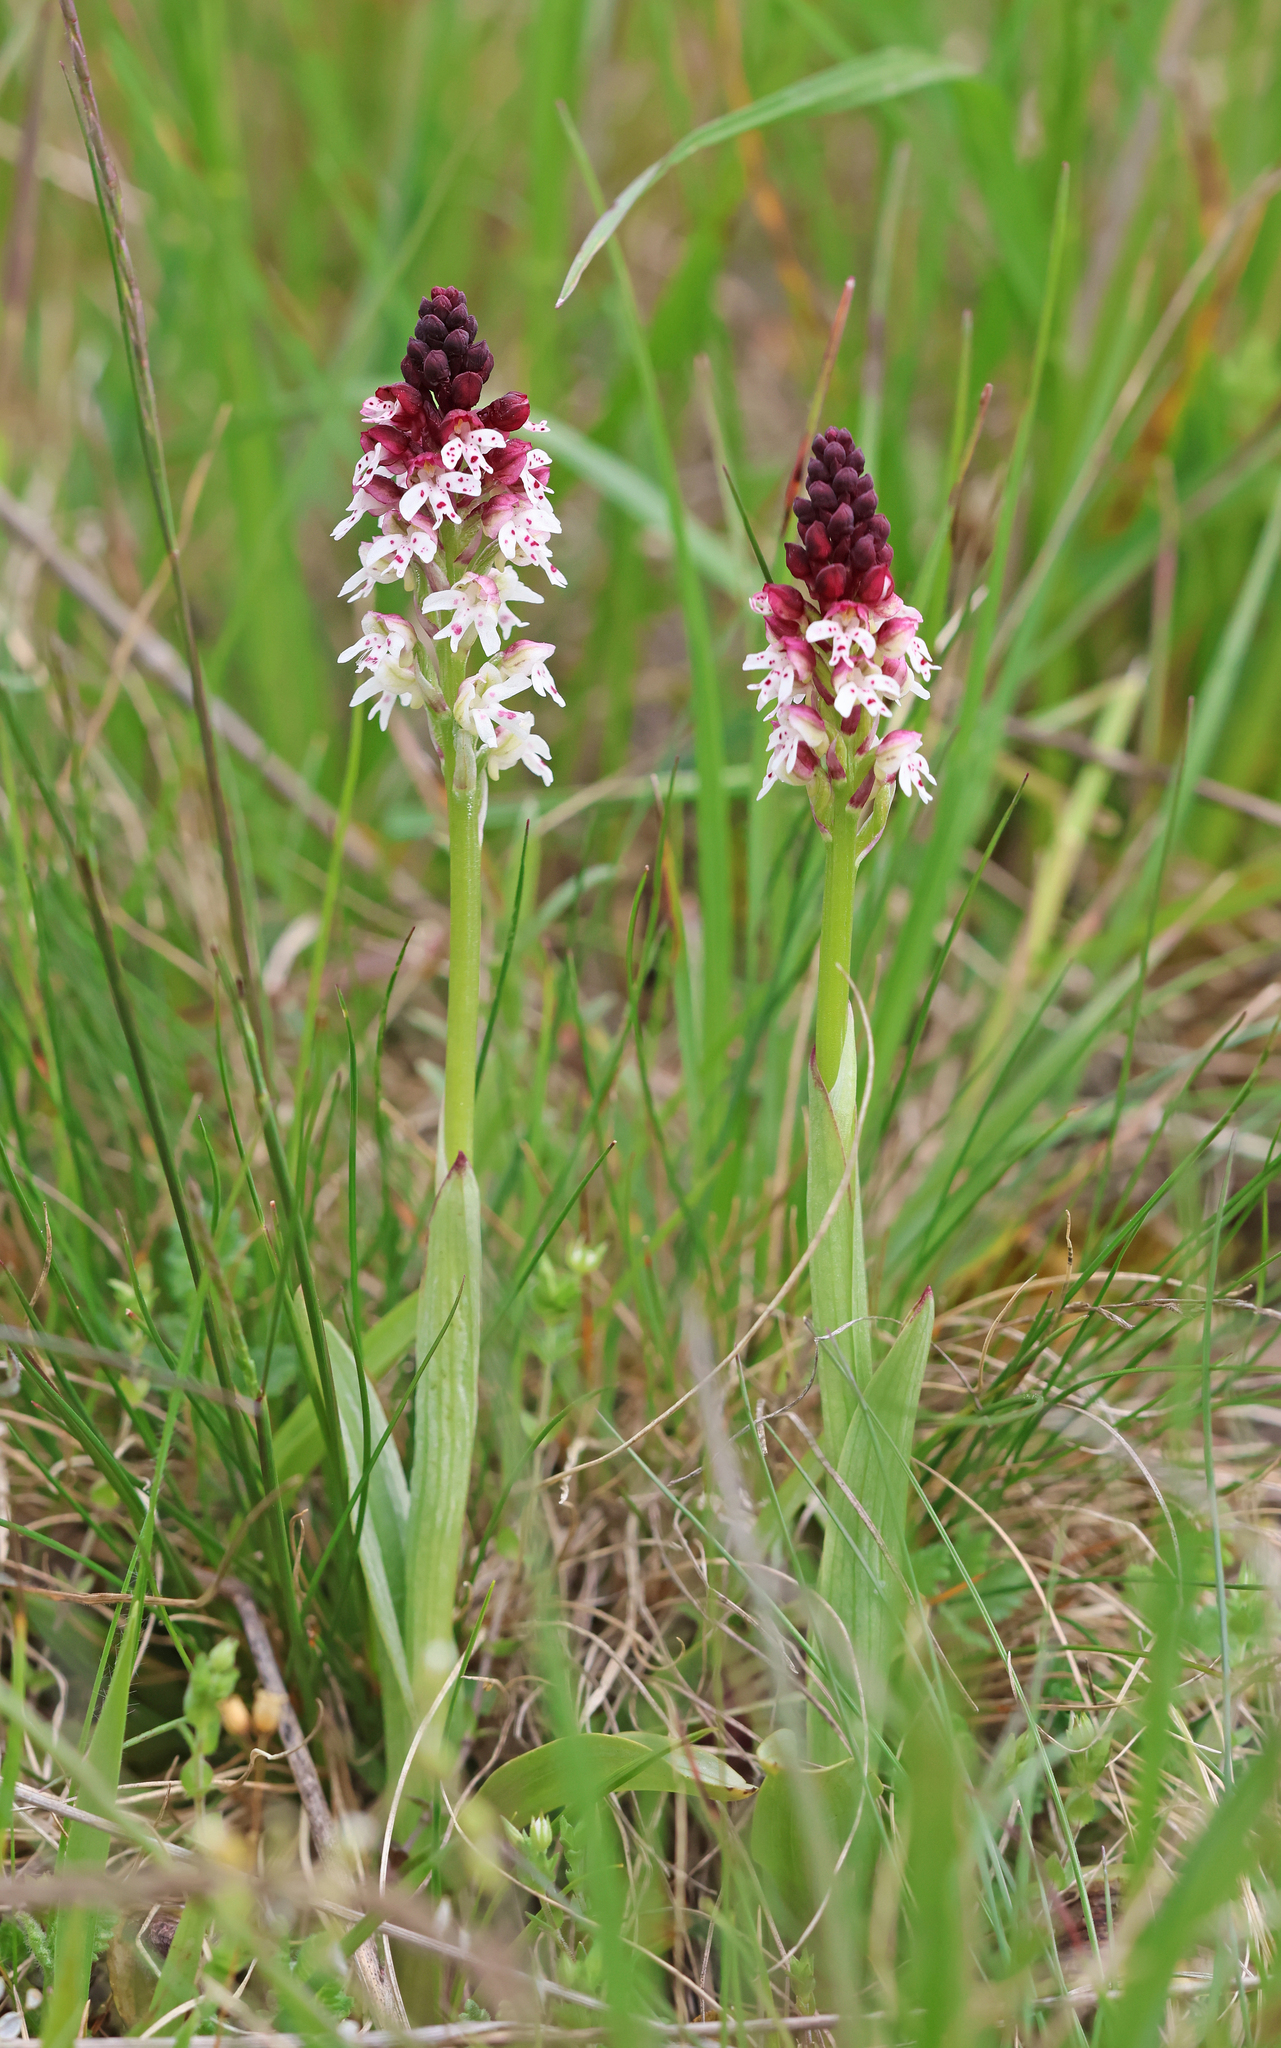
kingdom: Plantae
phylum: Tracheophyta
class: Liliopsida
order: Asparagales
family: Orchidaceae
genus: Neotinea
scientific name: Neotinea ustulata
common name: Burnt orchid
